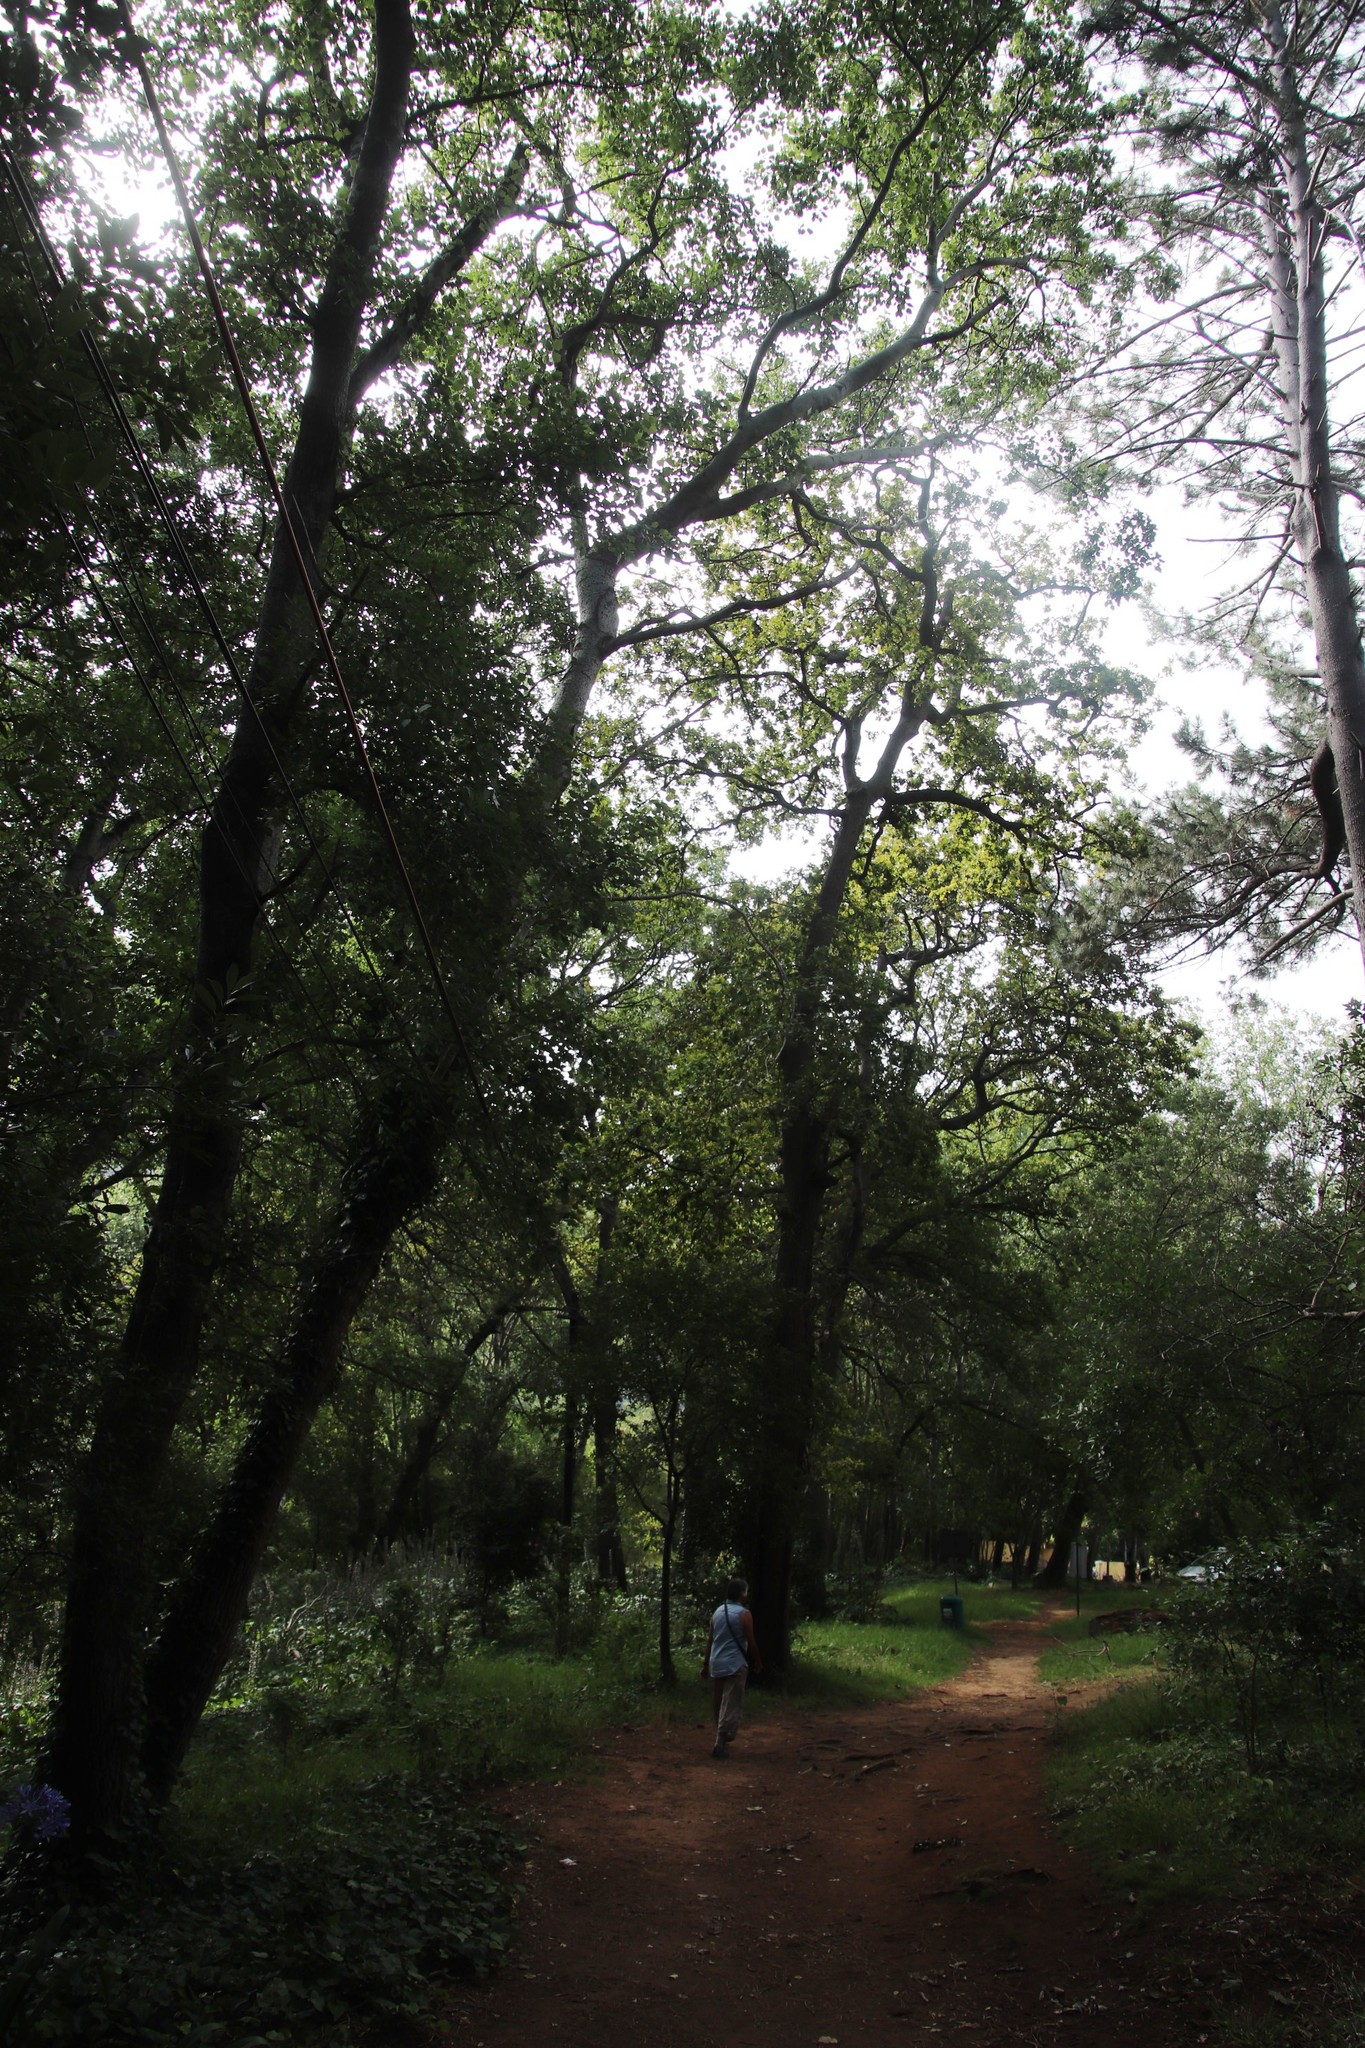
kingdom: Plantae
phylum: Tracheophyta
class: Magnoliopsida
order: Malpighiales
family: Salicaceae
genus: Populus
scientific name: Populus canescens
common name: Gray poplar
